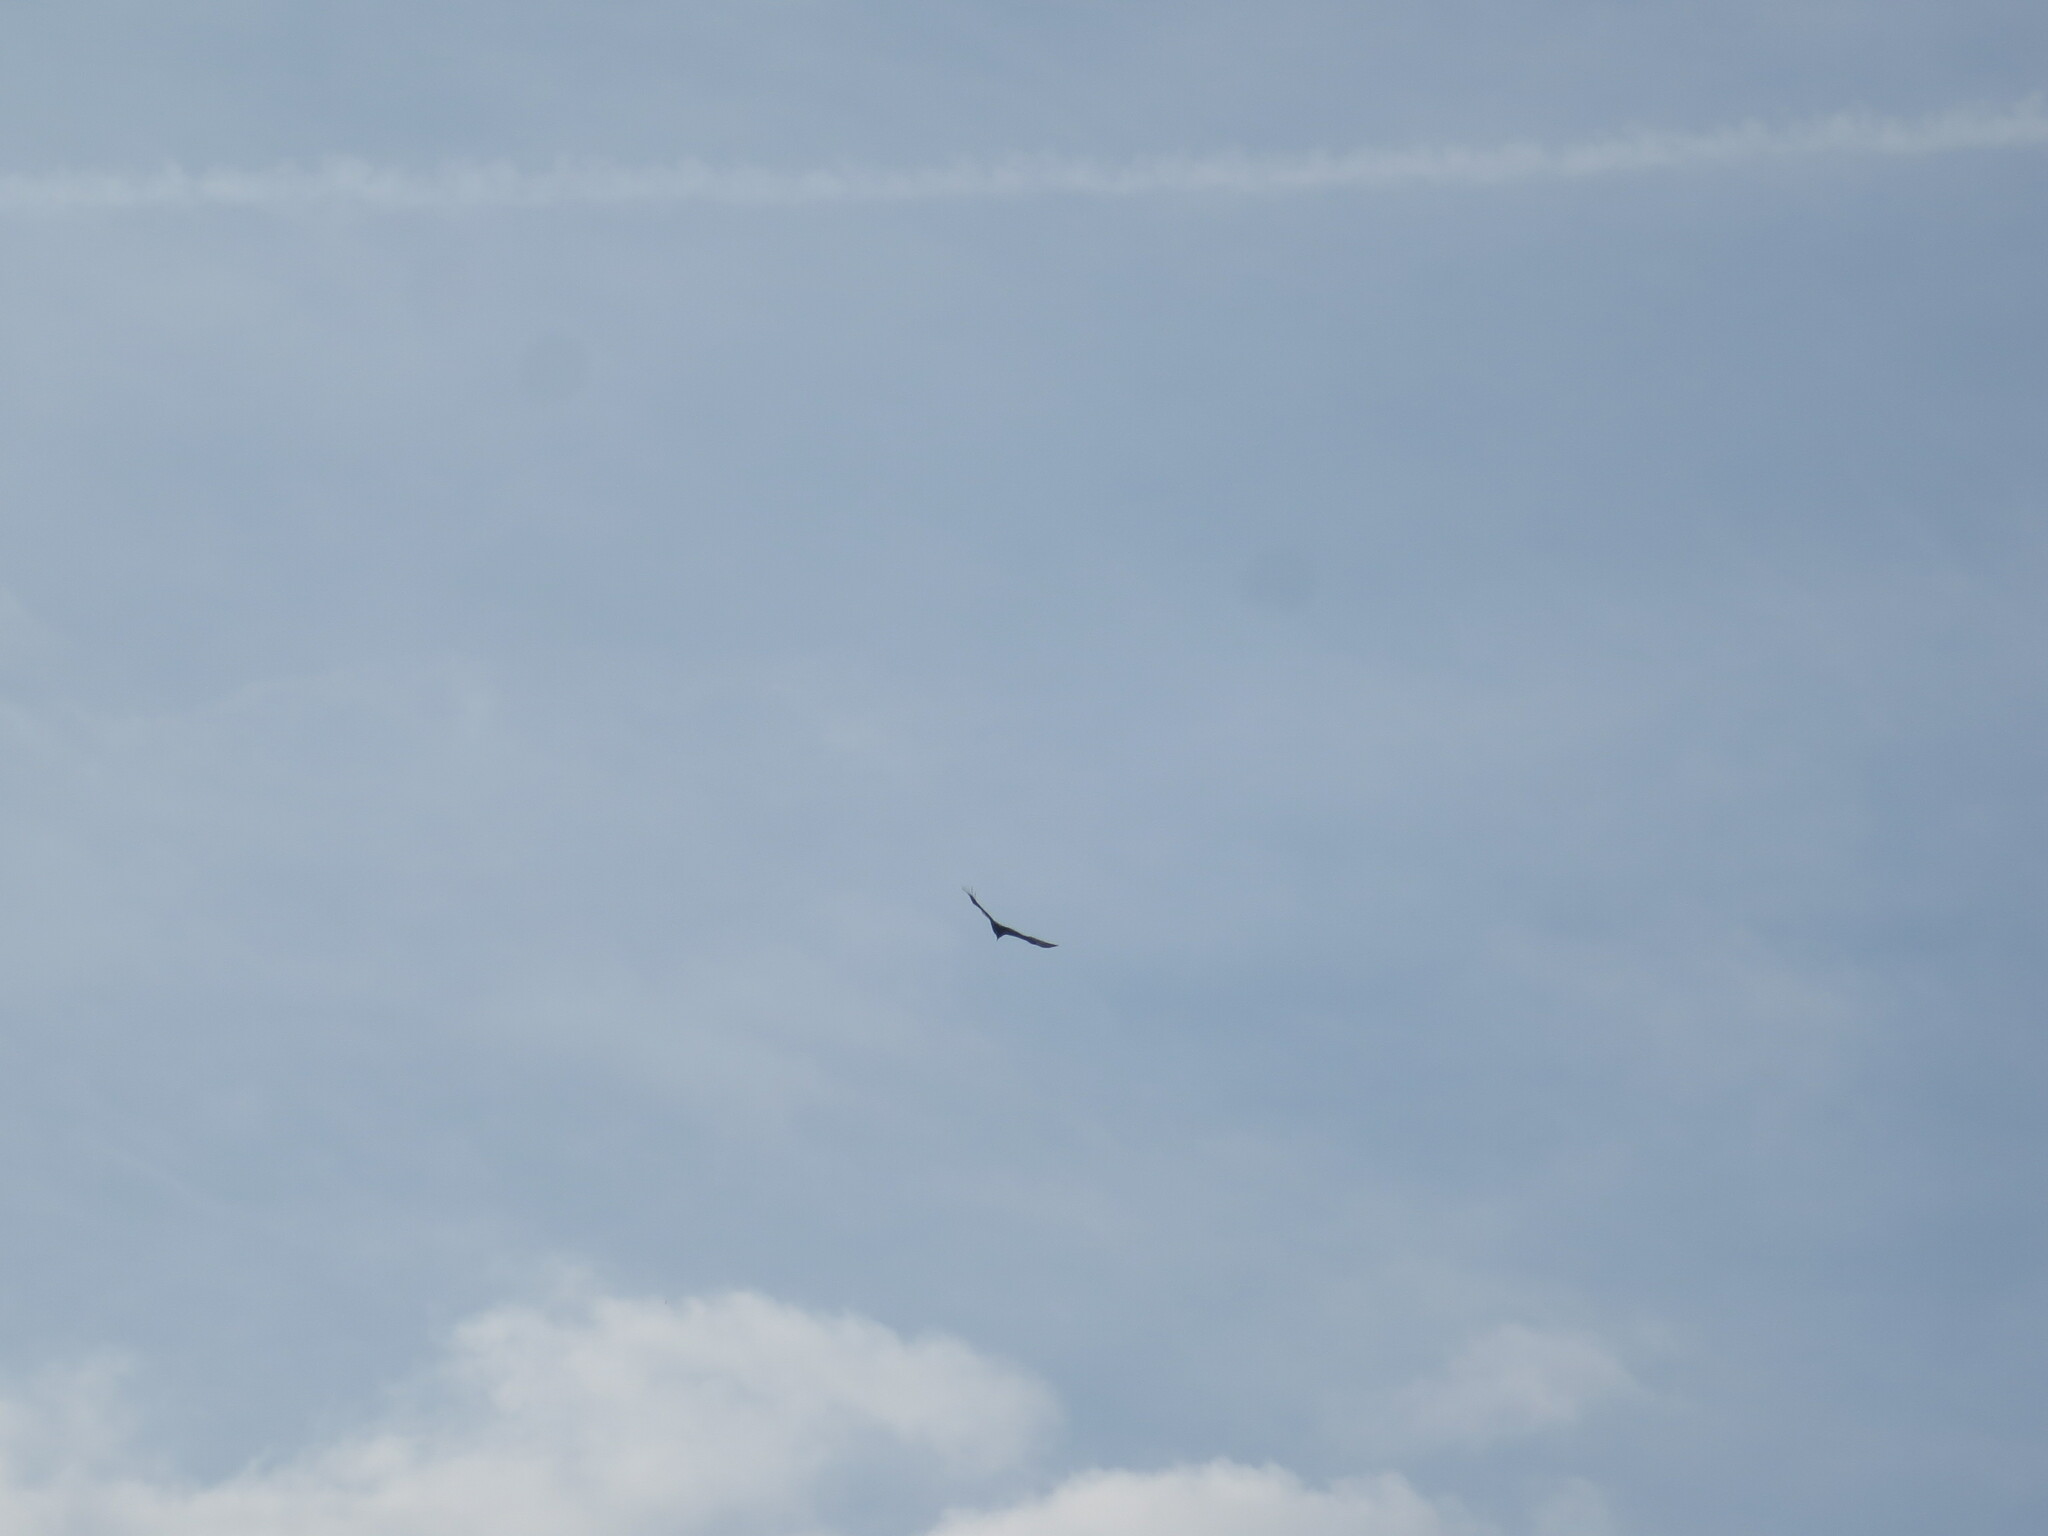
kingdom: Animalia
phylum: Chordata
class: Aves
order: Accipitriformes
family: Cathartidae
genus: Cathartes
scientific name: Cathartes aura
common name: Turkey vulture
